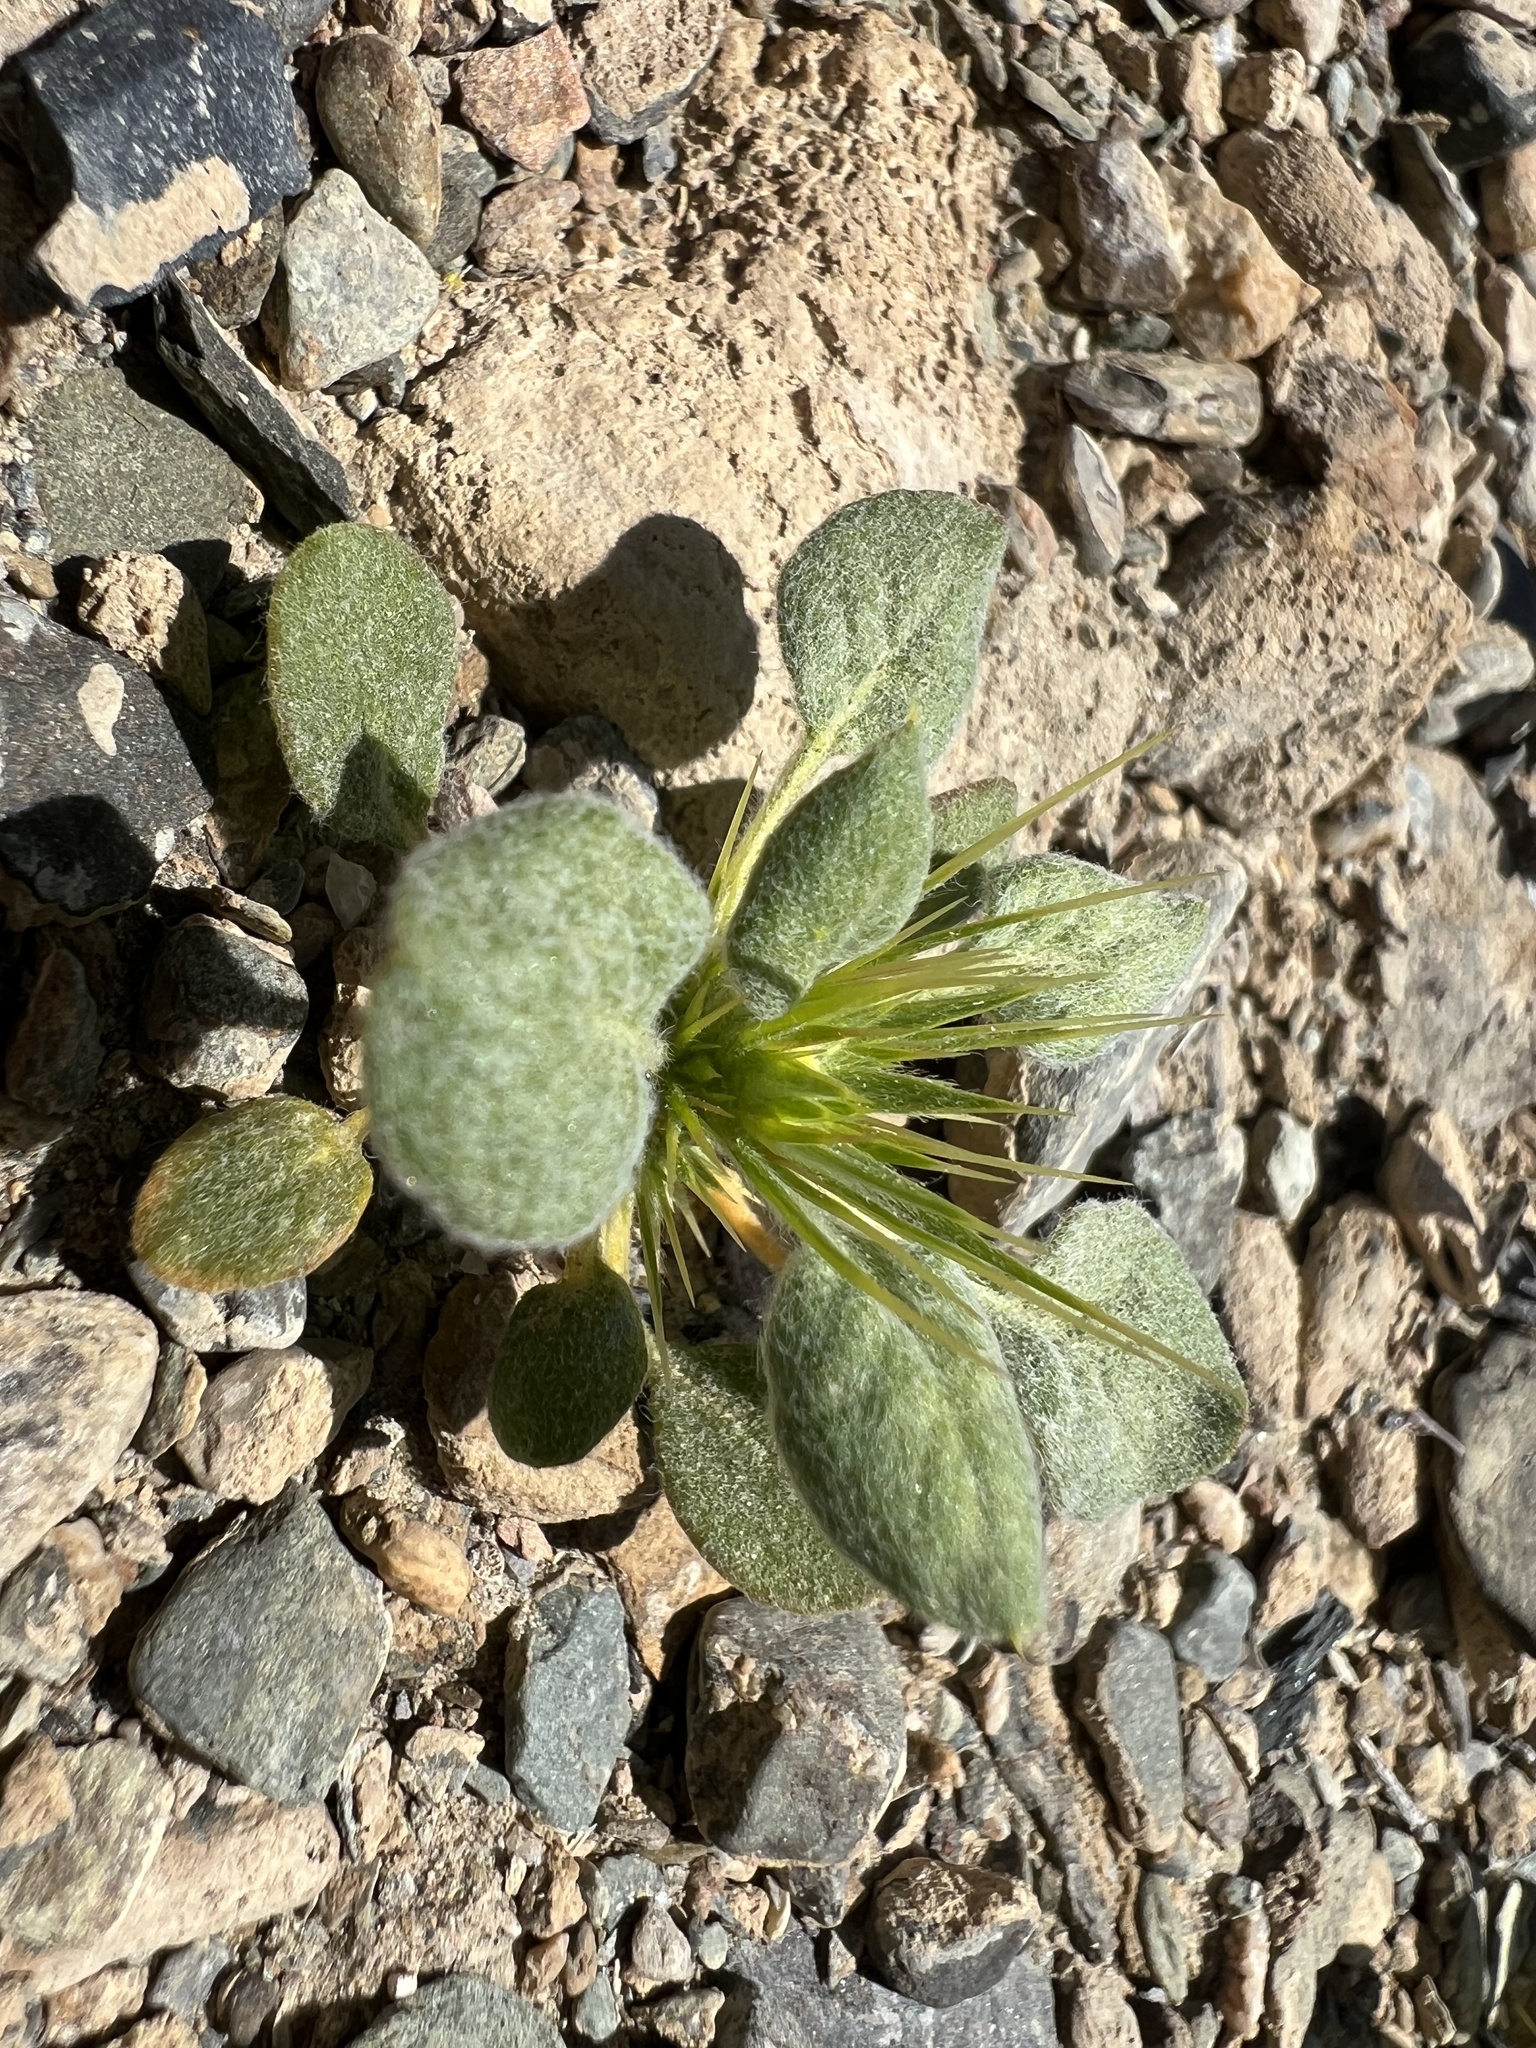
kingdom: Plantae
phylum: Tracheophyta
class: Magnoliopsida
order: Caryophyllales
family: Polygonaceae
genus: Chorizanthe
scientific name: Chorizanthe rigida
